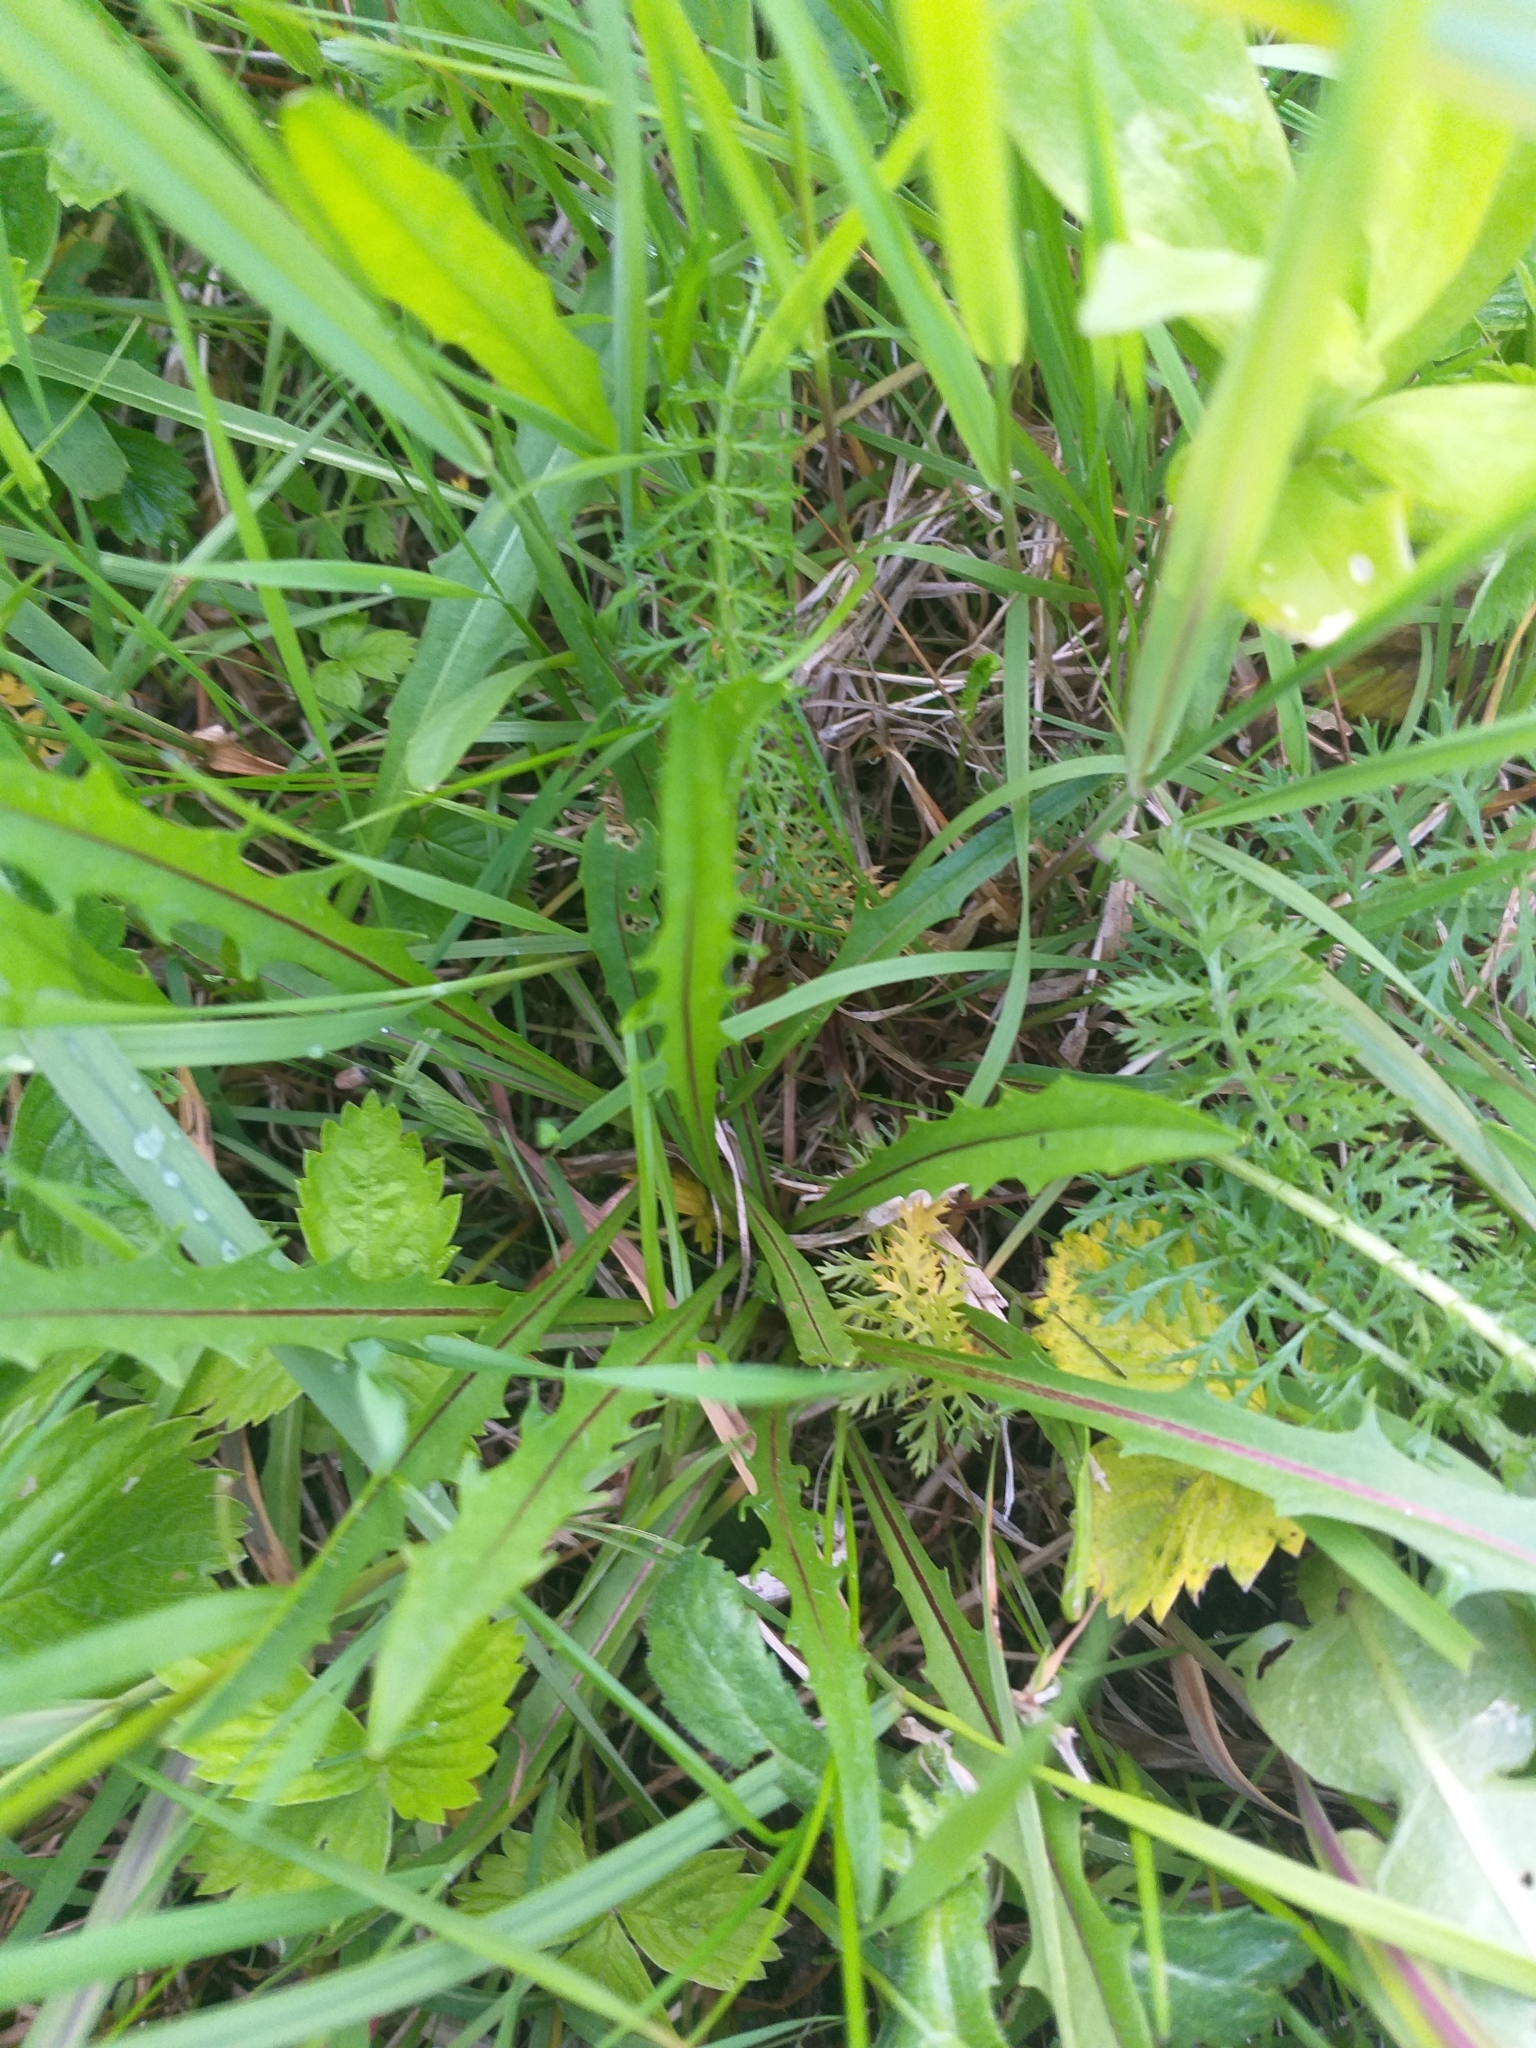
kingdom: Plantae
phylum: Tracheophyta
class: Magnoliopsida
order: Asterales
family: Asteraceae
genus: Scorzoneroides
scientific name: Scorzoneroides autumnalis
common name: Autumn hawkbit
